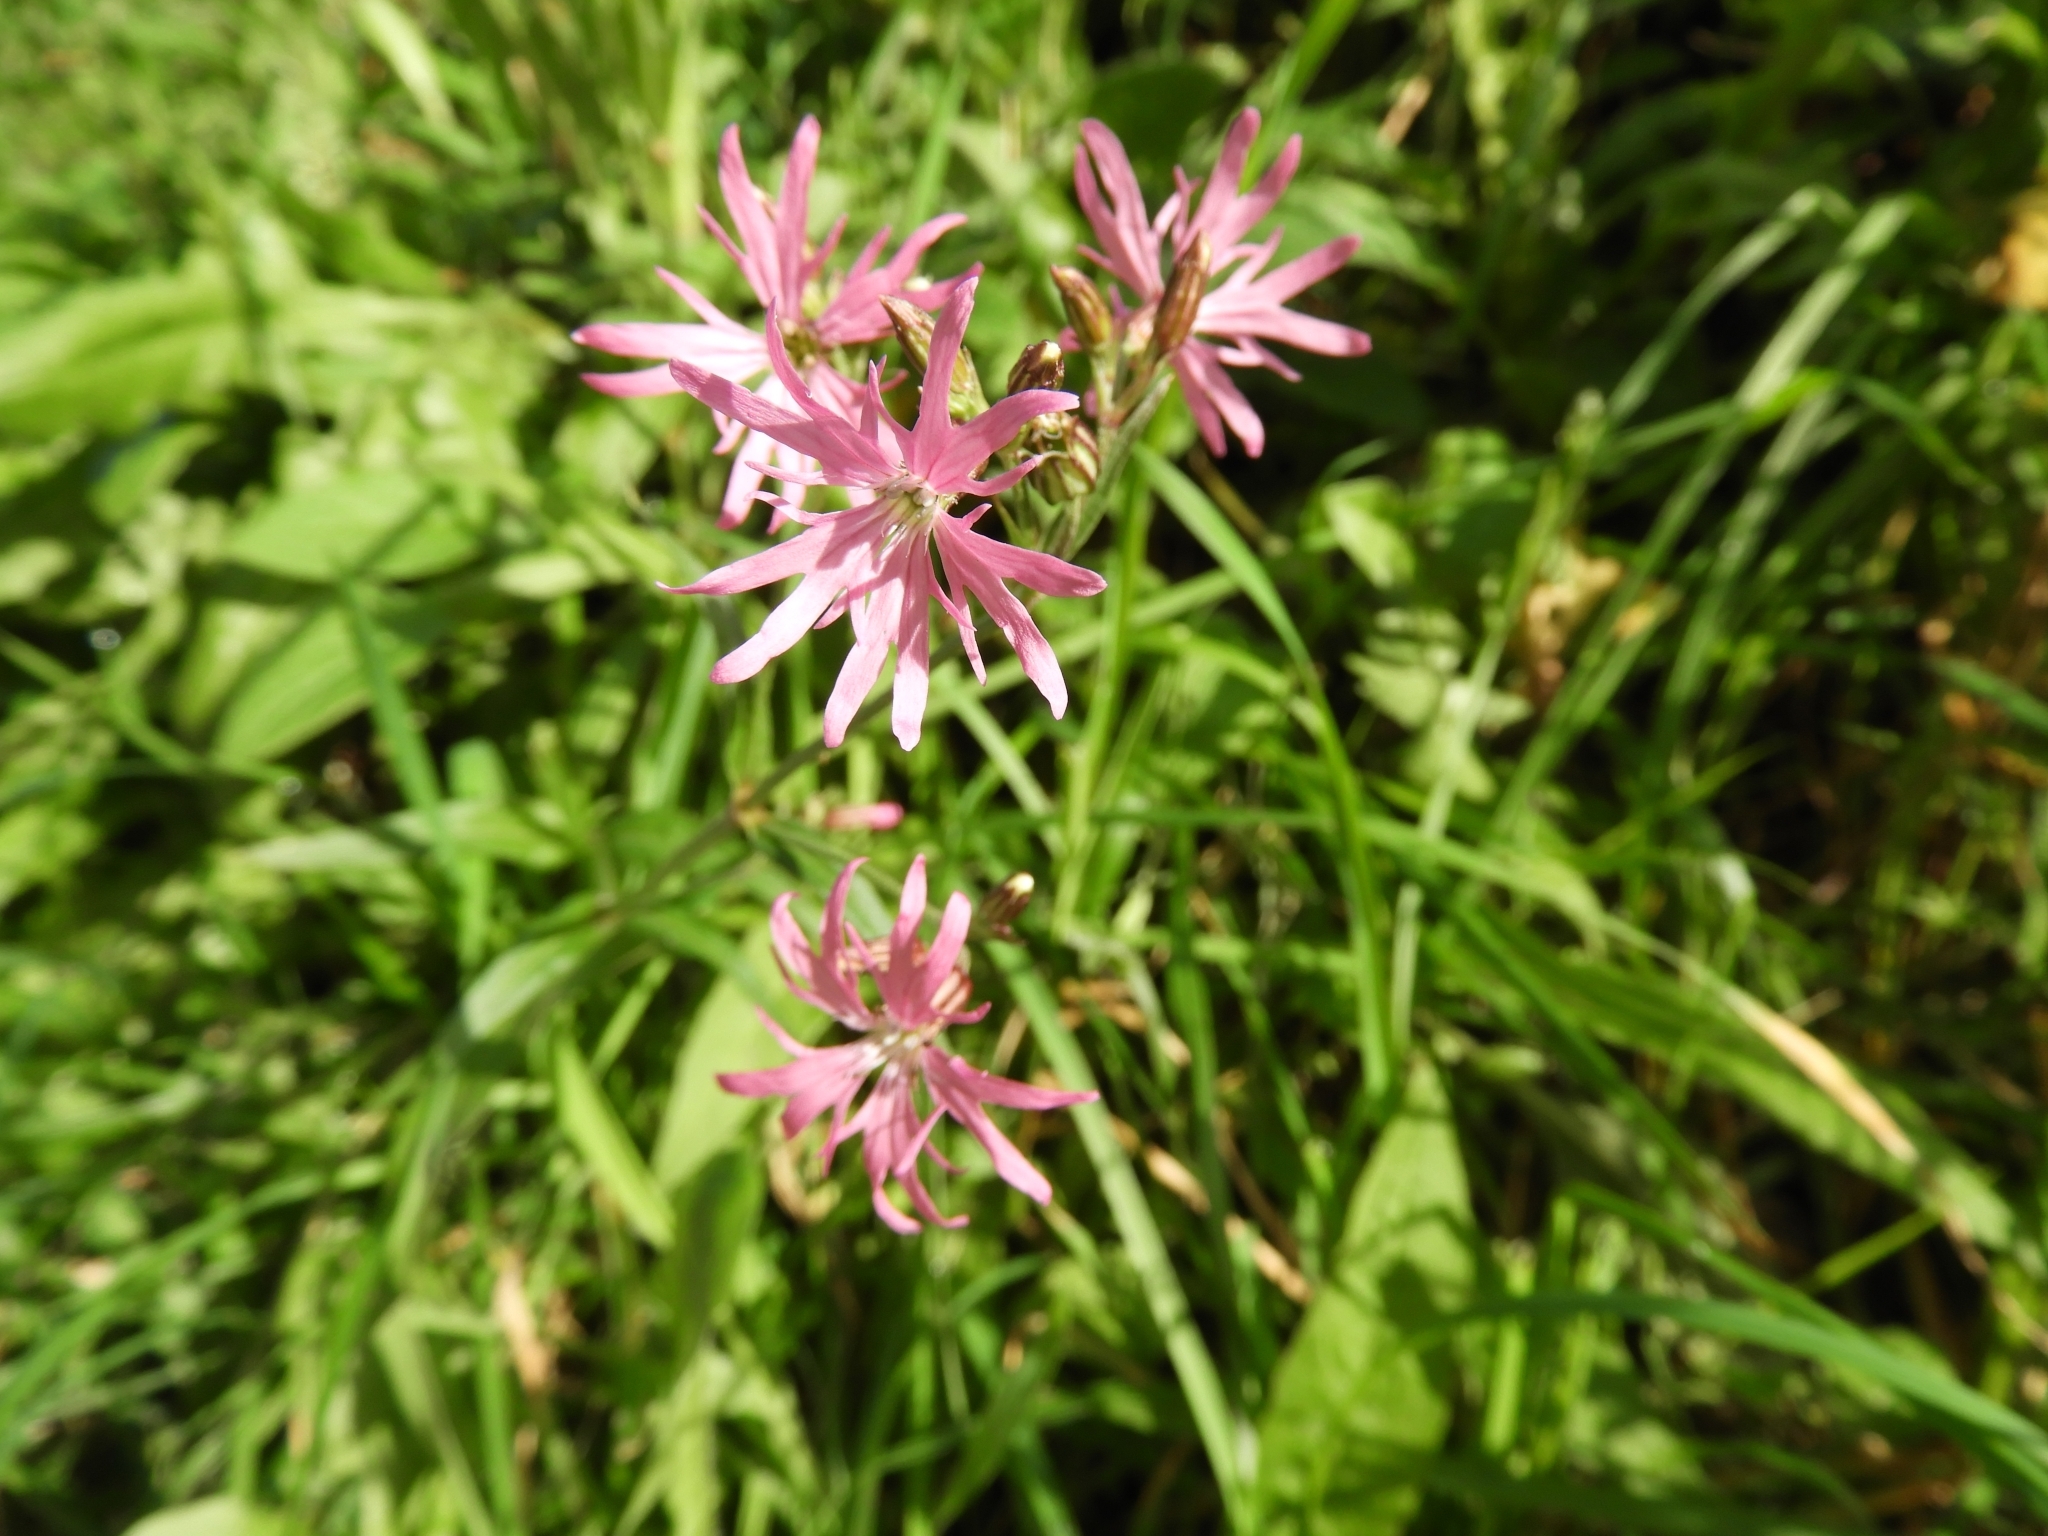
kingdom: Plantae
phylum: Tracheophyta
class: Magnoliopsida
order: Caryophyllales
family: Caryophyllaceae
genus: Silene
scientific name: Silene flos-cuculi
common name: Ragged-robin
